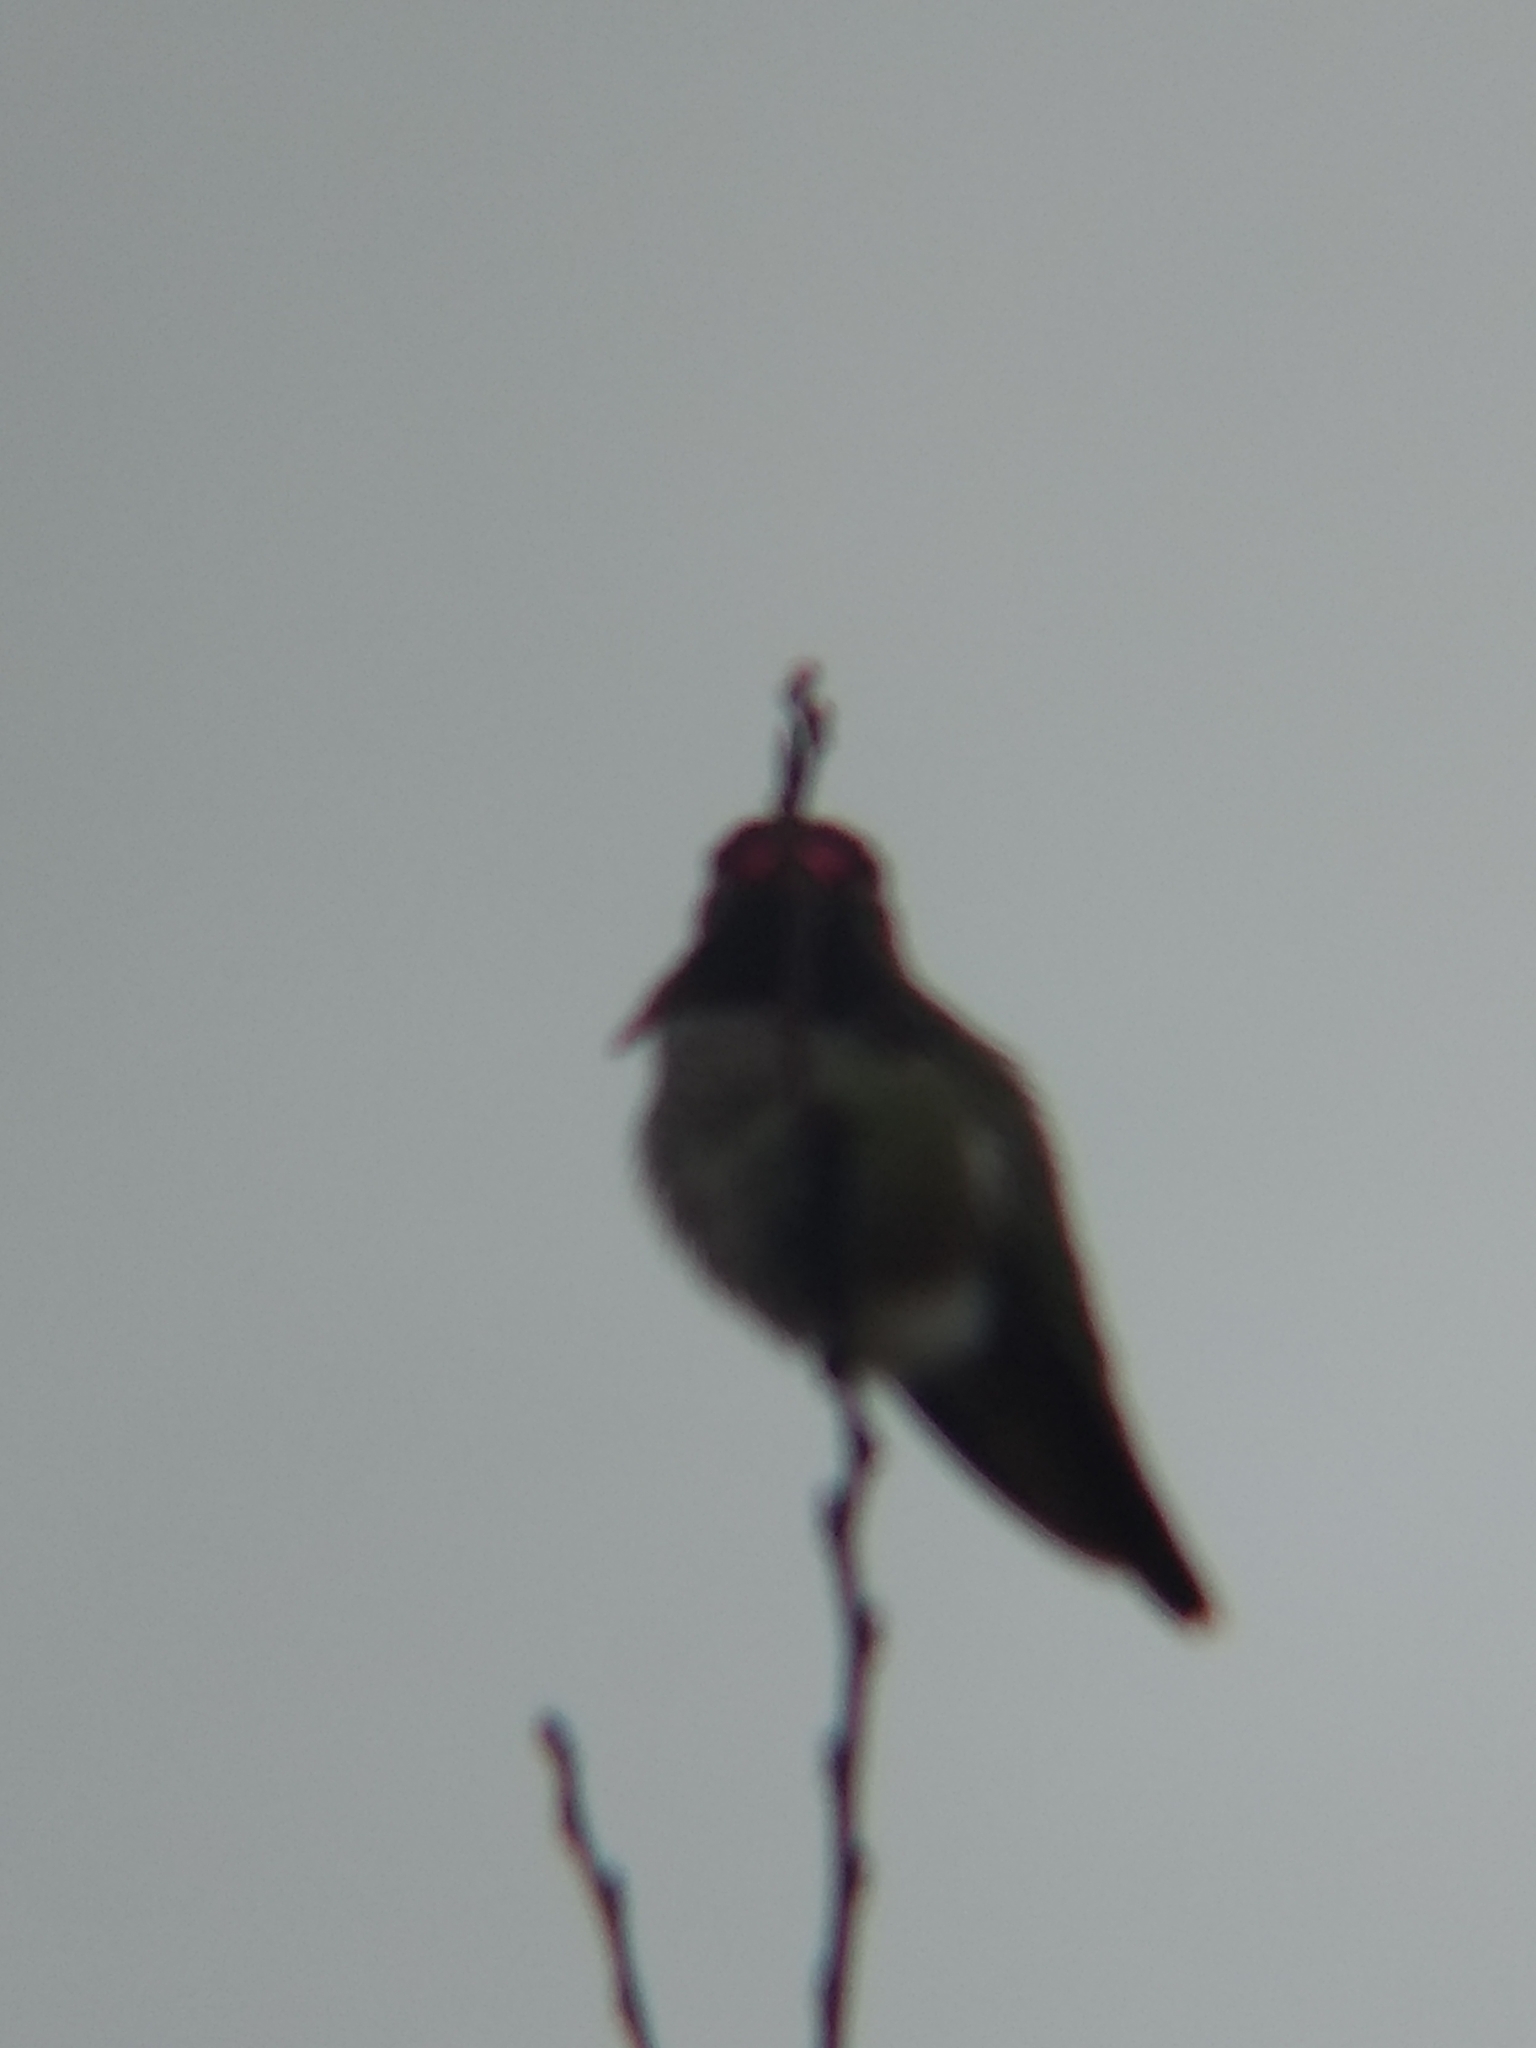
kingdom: Animalia
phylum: Chordata
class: Aves
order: Apodiformes
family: Trochilidae
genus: Calypte
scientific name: Calypte anna
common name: Anna's hummingbird
